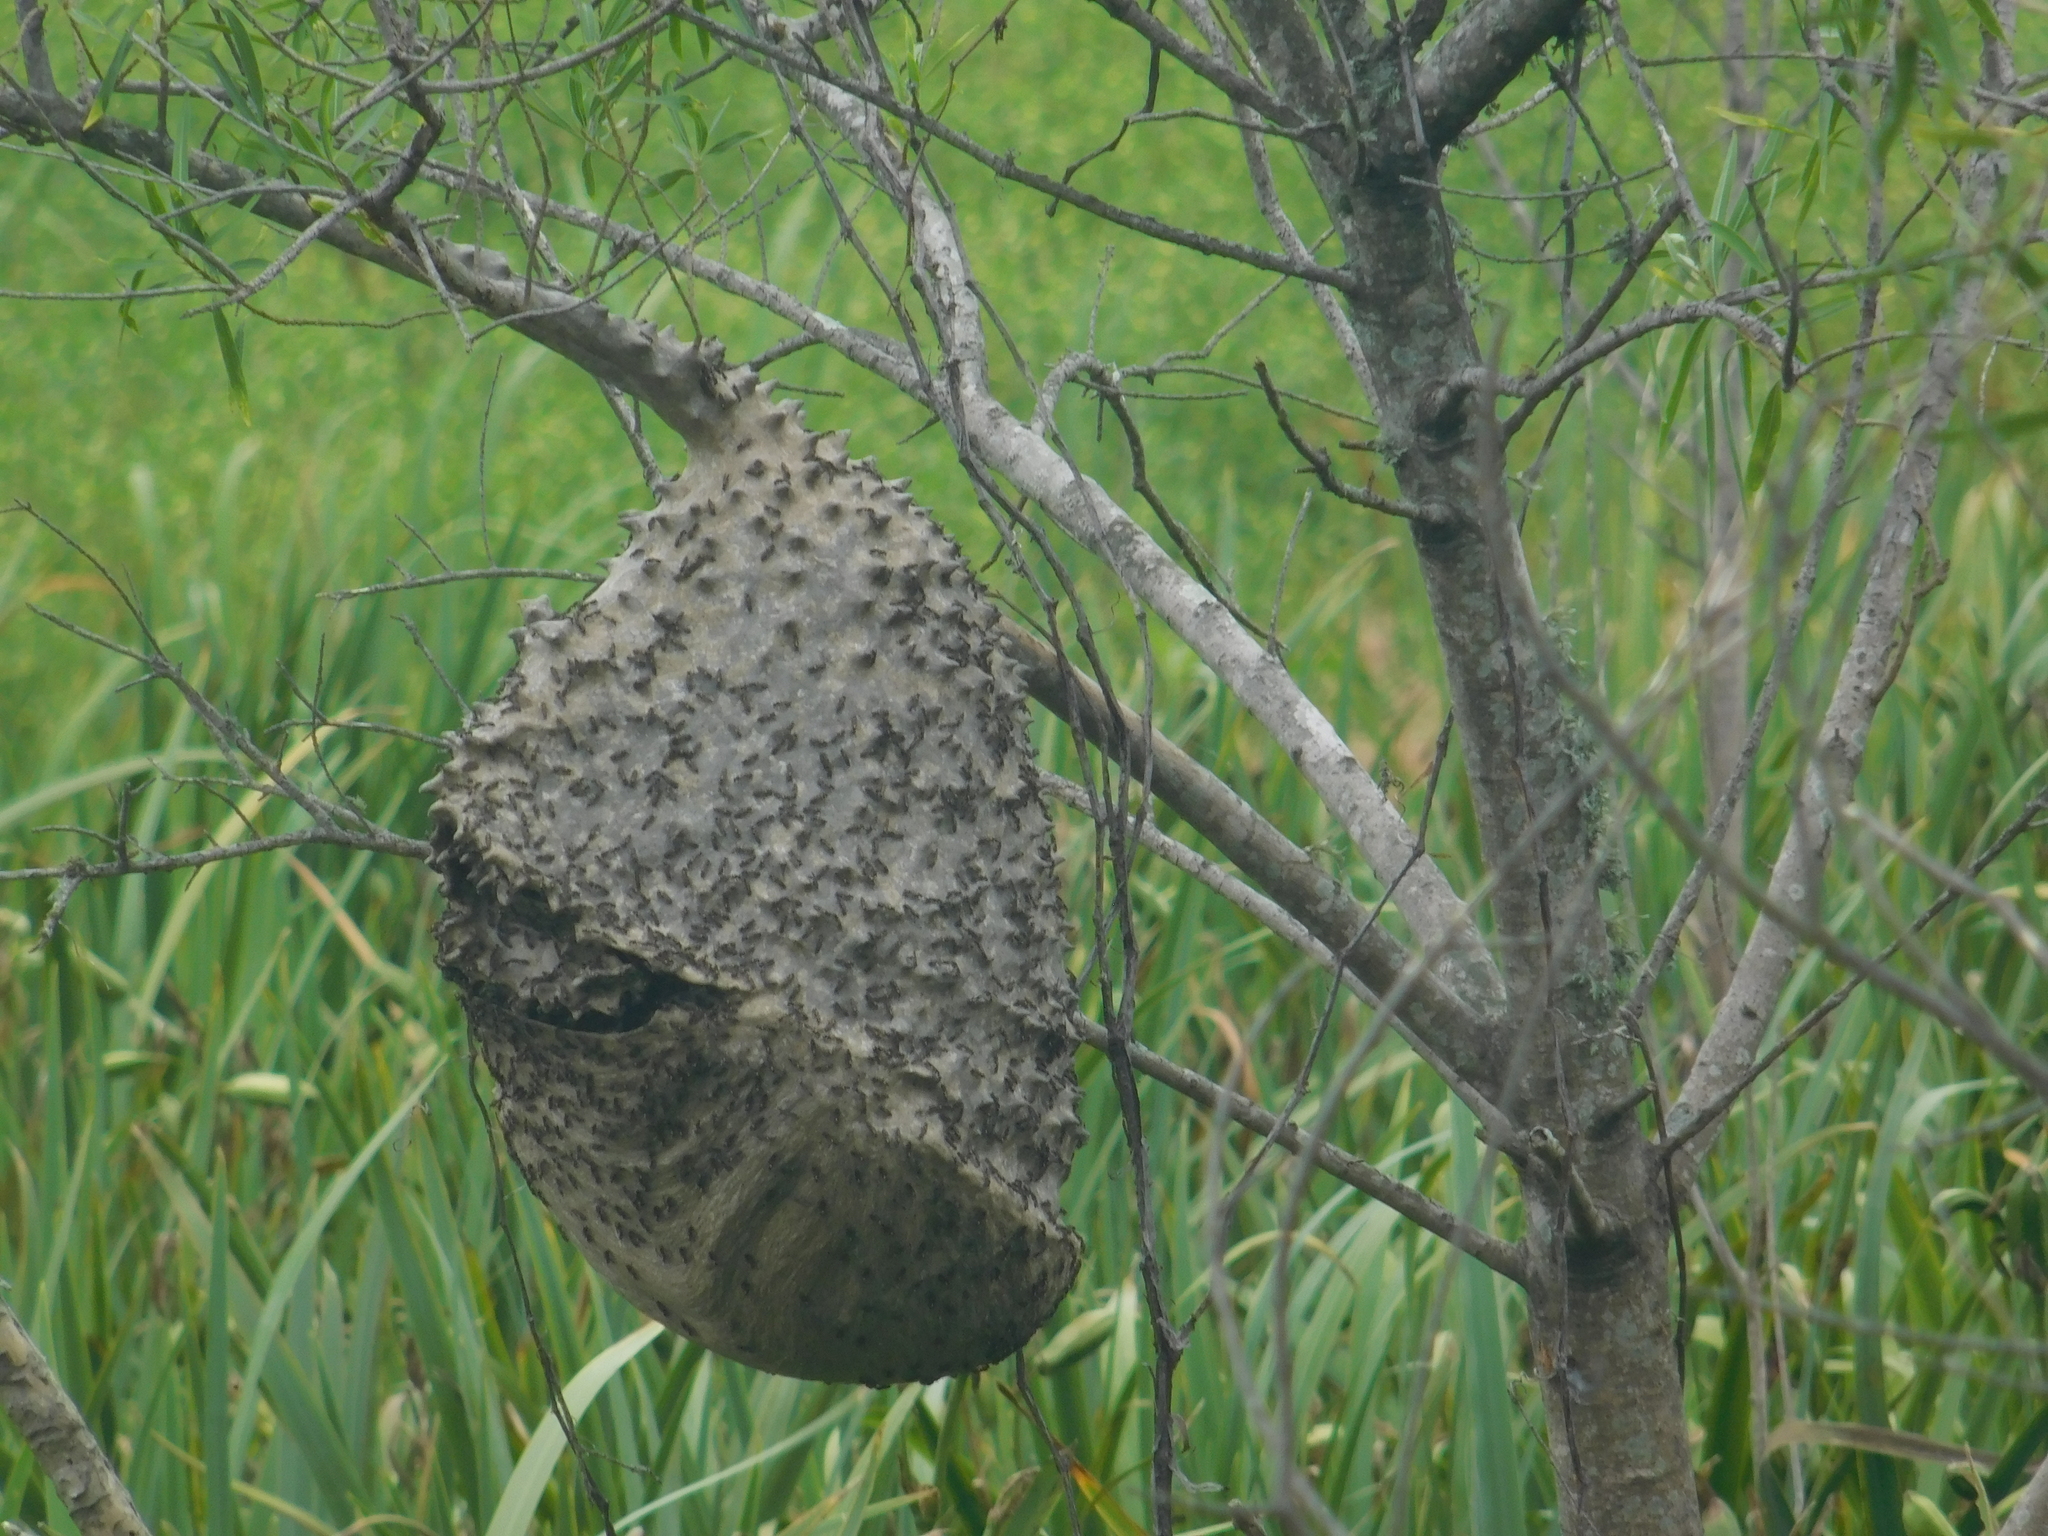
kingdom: Animalia
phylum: Arthropoda
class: Insecta
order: Hymenoptera
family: Eumenidae
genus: Polybia
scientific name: Polybia scutellaris
